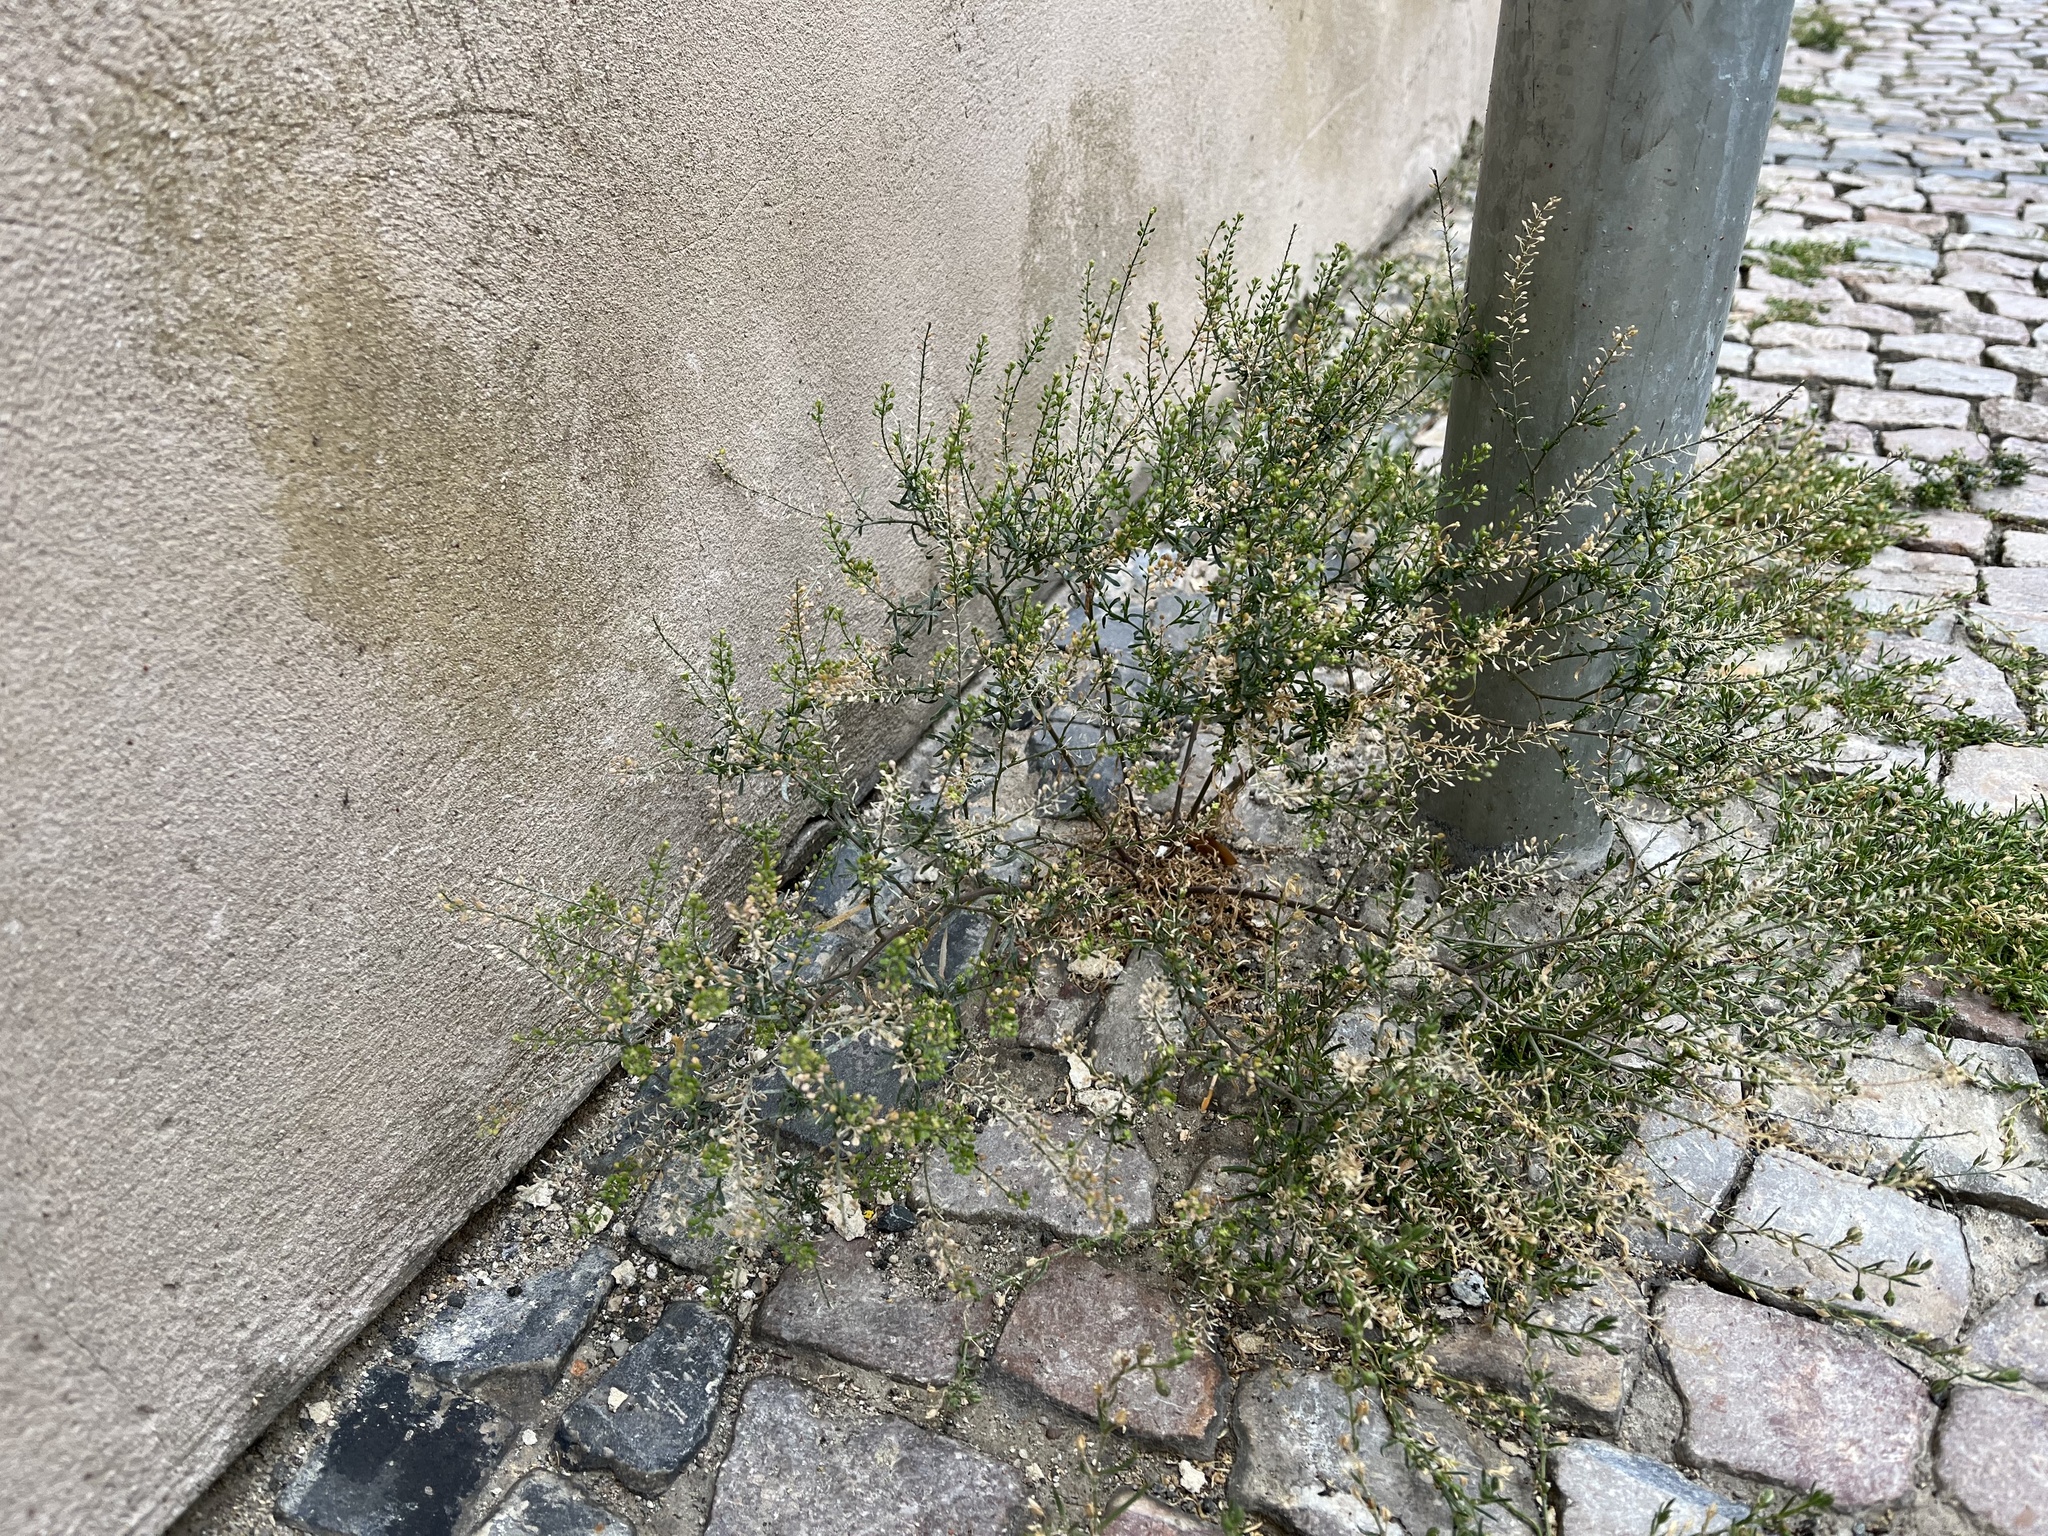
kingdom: Plantae
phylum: Tracheophyta
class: Magnoliopsida
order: Brassicales
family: Brassicaceae
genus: Lepidium
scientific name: Lepidium ruderale
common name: Narrow-leaved pepperwort
